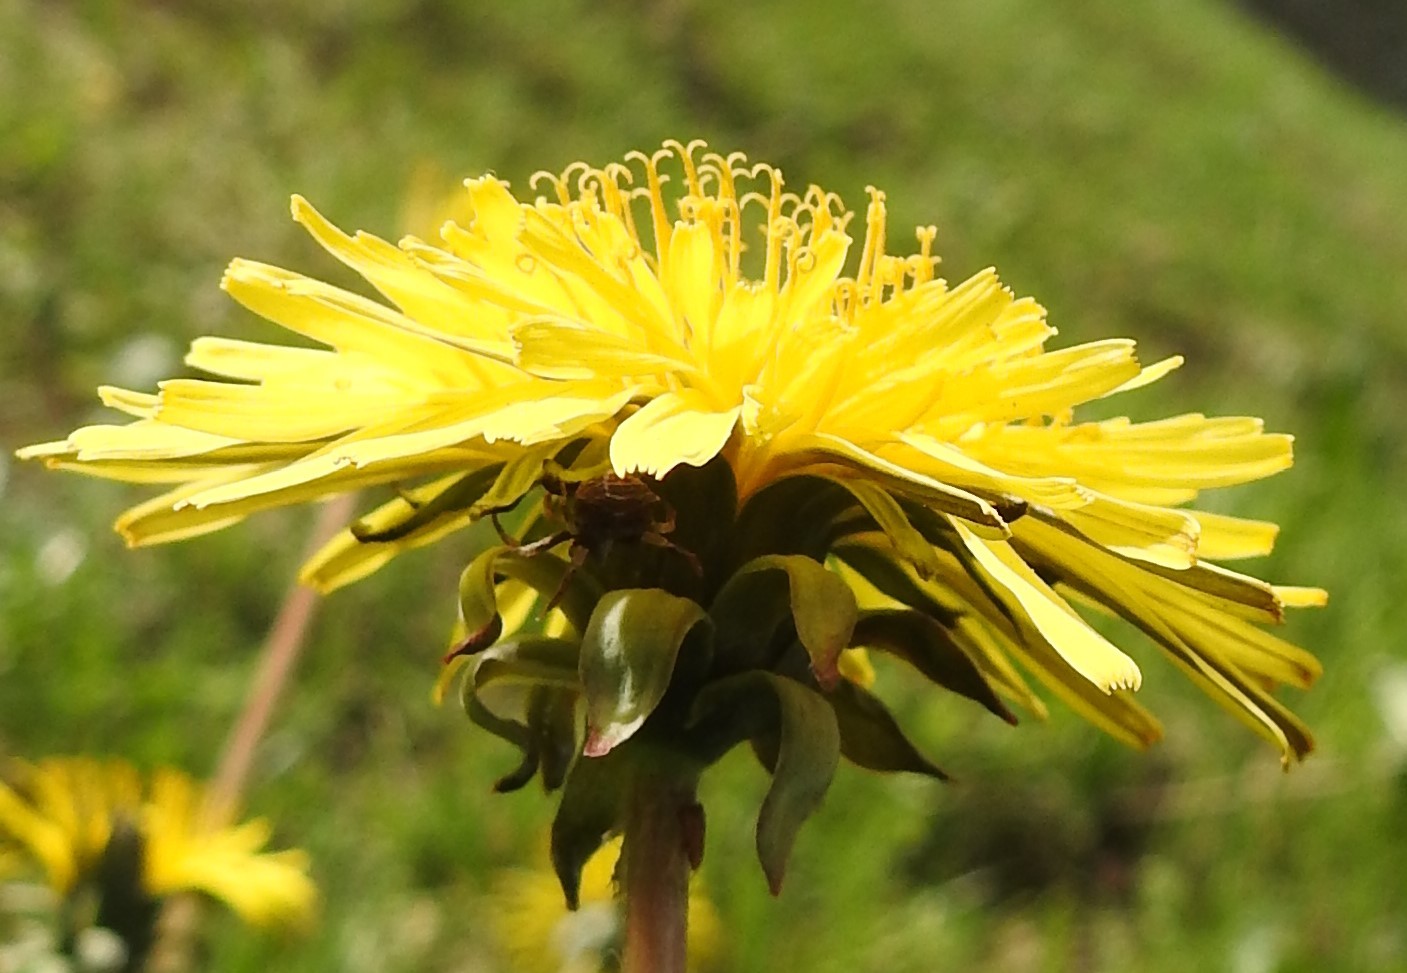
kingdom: Animalia
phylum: Arthropoda
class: Arachnida
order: Araneae
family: Thomisidae
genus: Coenypha
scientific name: Coenypha ditissima
